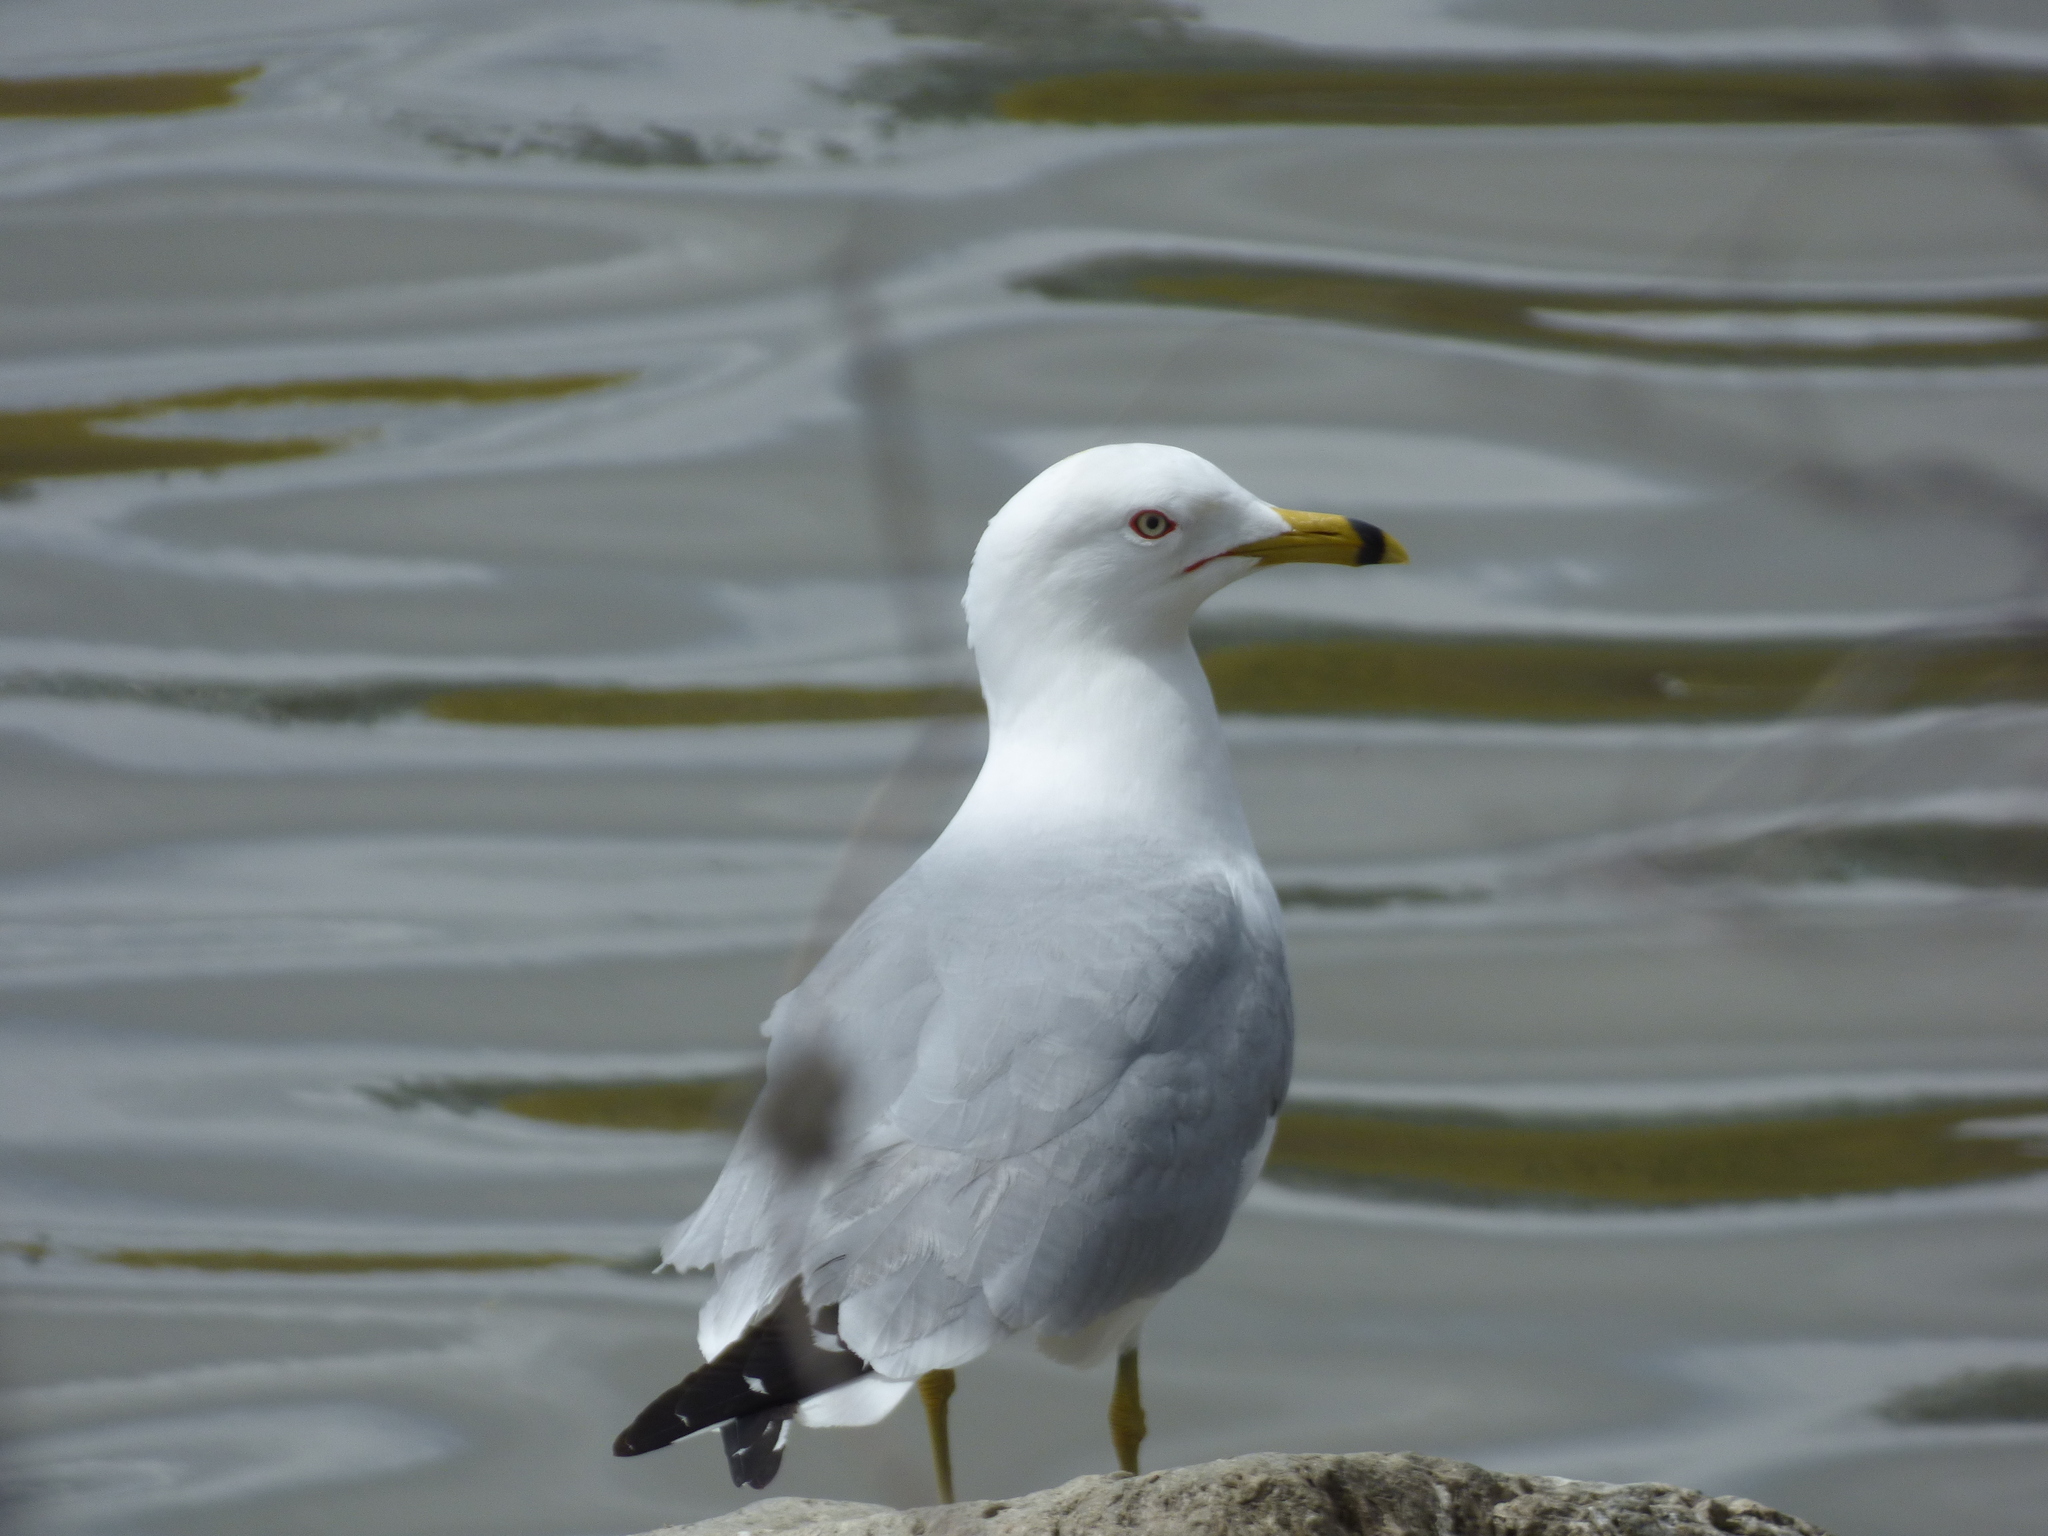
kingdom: Animalia
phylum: Chordata
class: Aves
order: Charadriiformes
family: Laridae
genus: Larus
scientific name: Larus delawarensis
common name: Ring-billed gull
